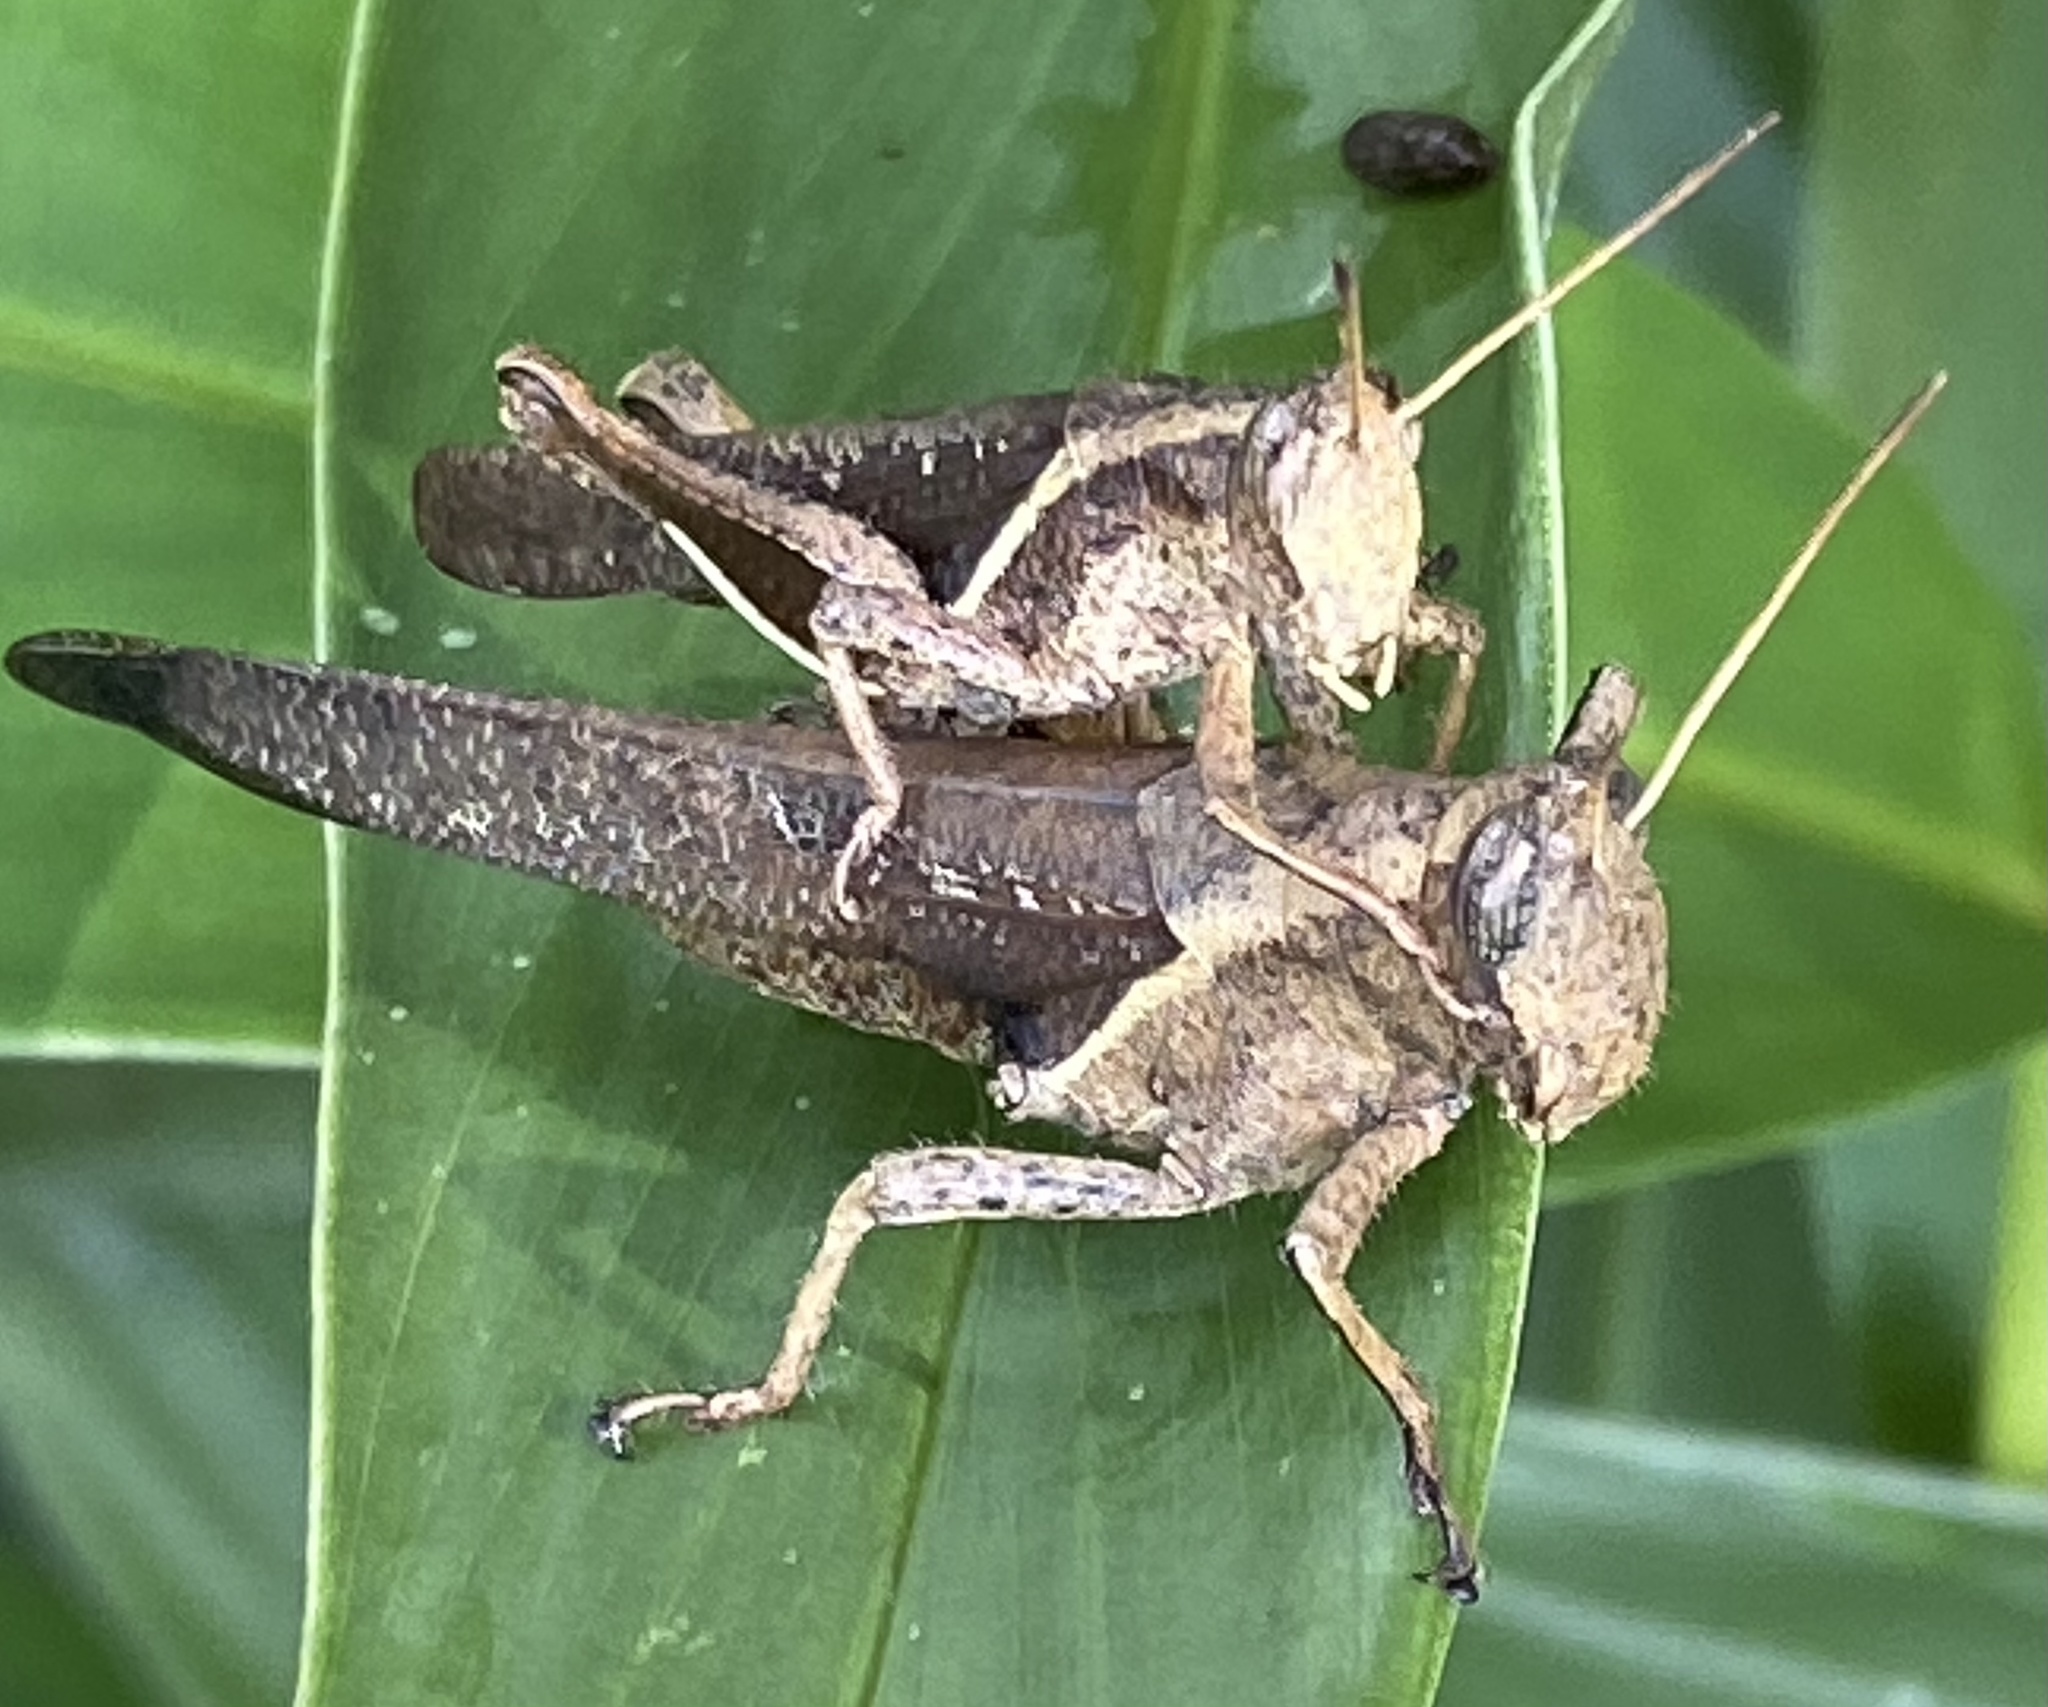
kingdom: Animalia
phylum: Arthropoda
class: Insecta
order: Orthoptera
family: Acrididae
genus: Abracris
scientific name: Abracris flavolineata
